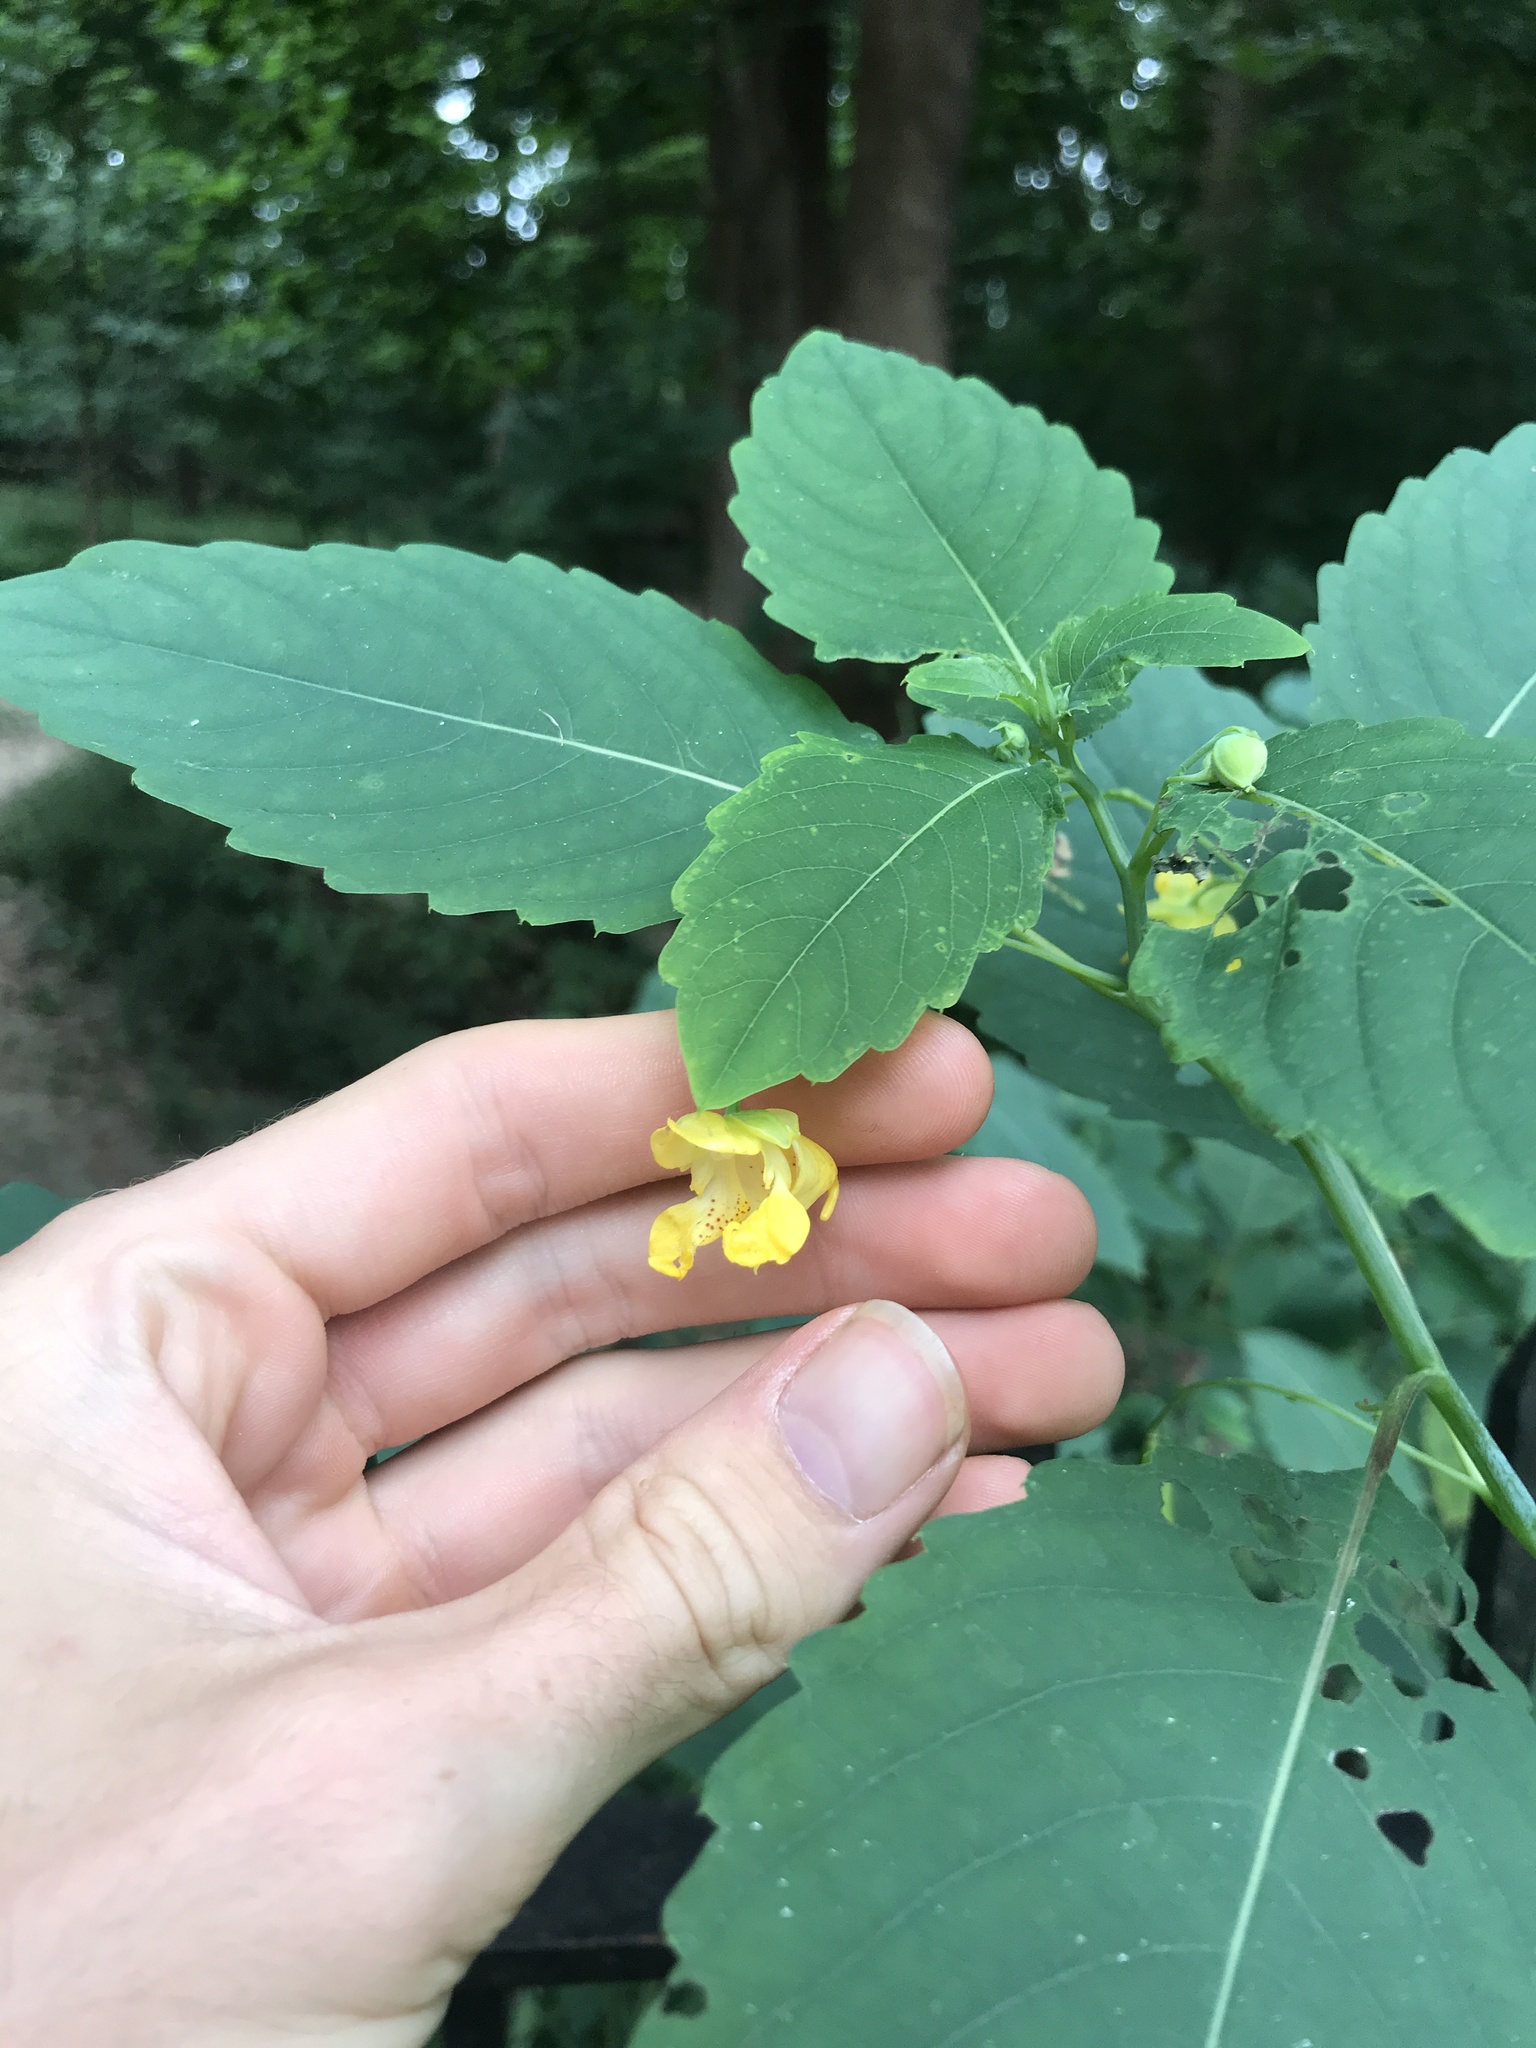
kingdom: Plantae
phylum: Tracheophyta
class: Magnoliopsida
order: Ericales
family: Balsaminaceae
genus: Impatiens
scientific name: Impatiens pallida
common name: Pale snapweed
